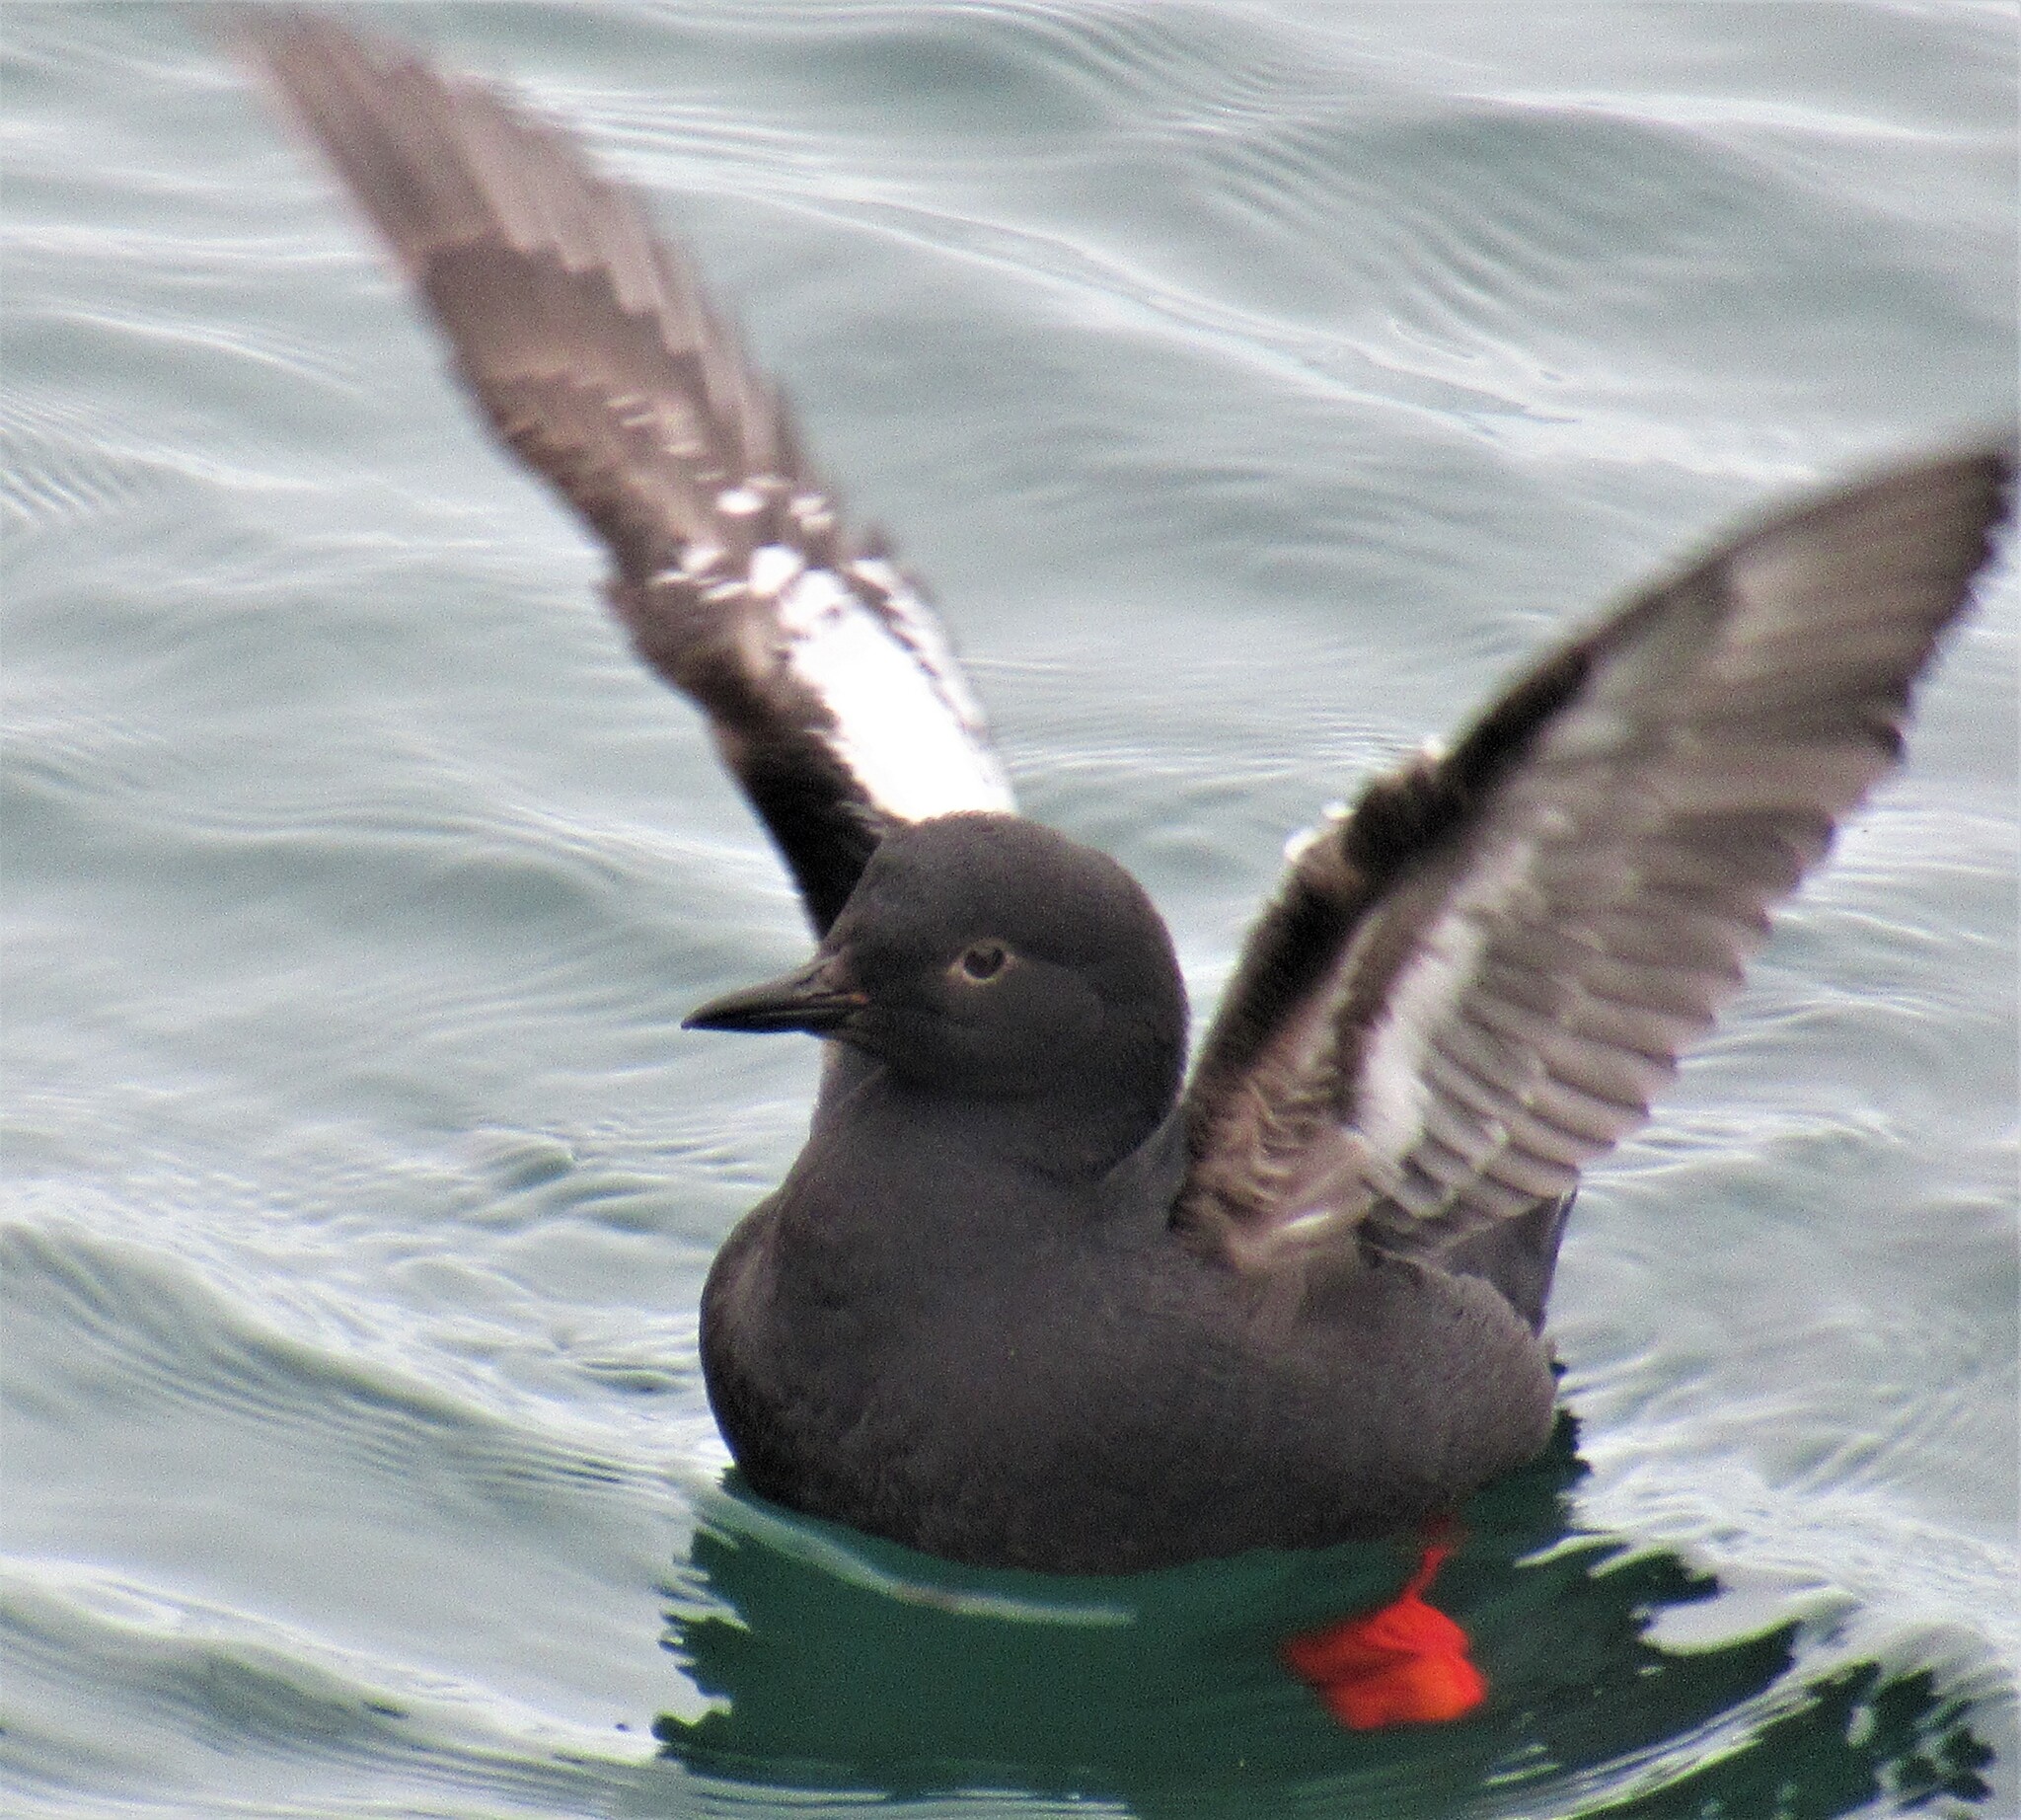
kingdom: Animalia
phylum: Chordata
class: Aves
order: Charadriiformes
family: Alcidae
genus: Cepphus
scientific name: Cepphus columba
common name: Pigeon guillemot
